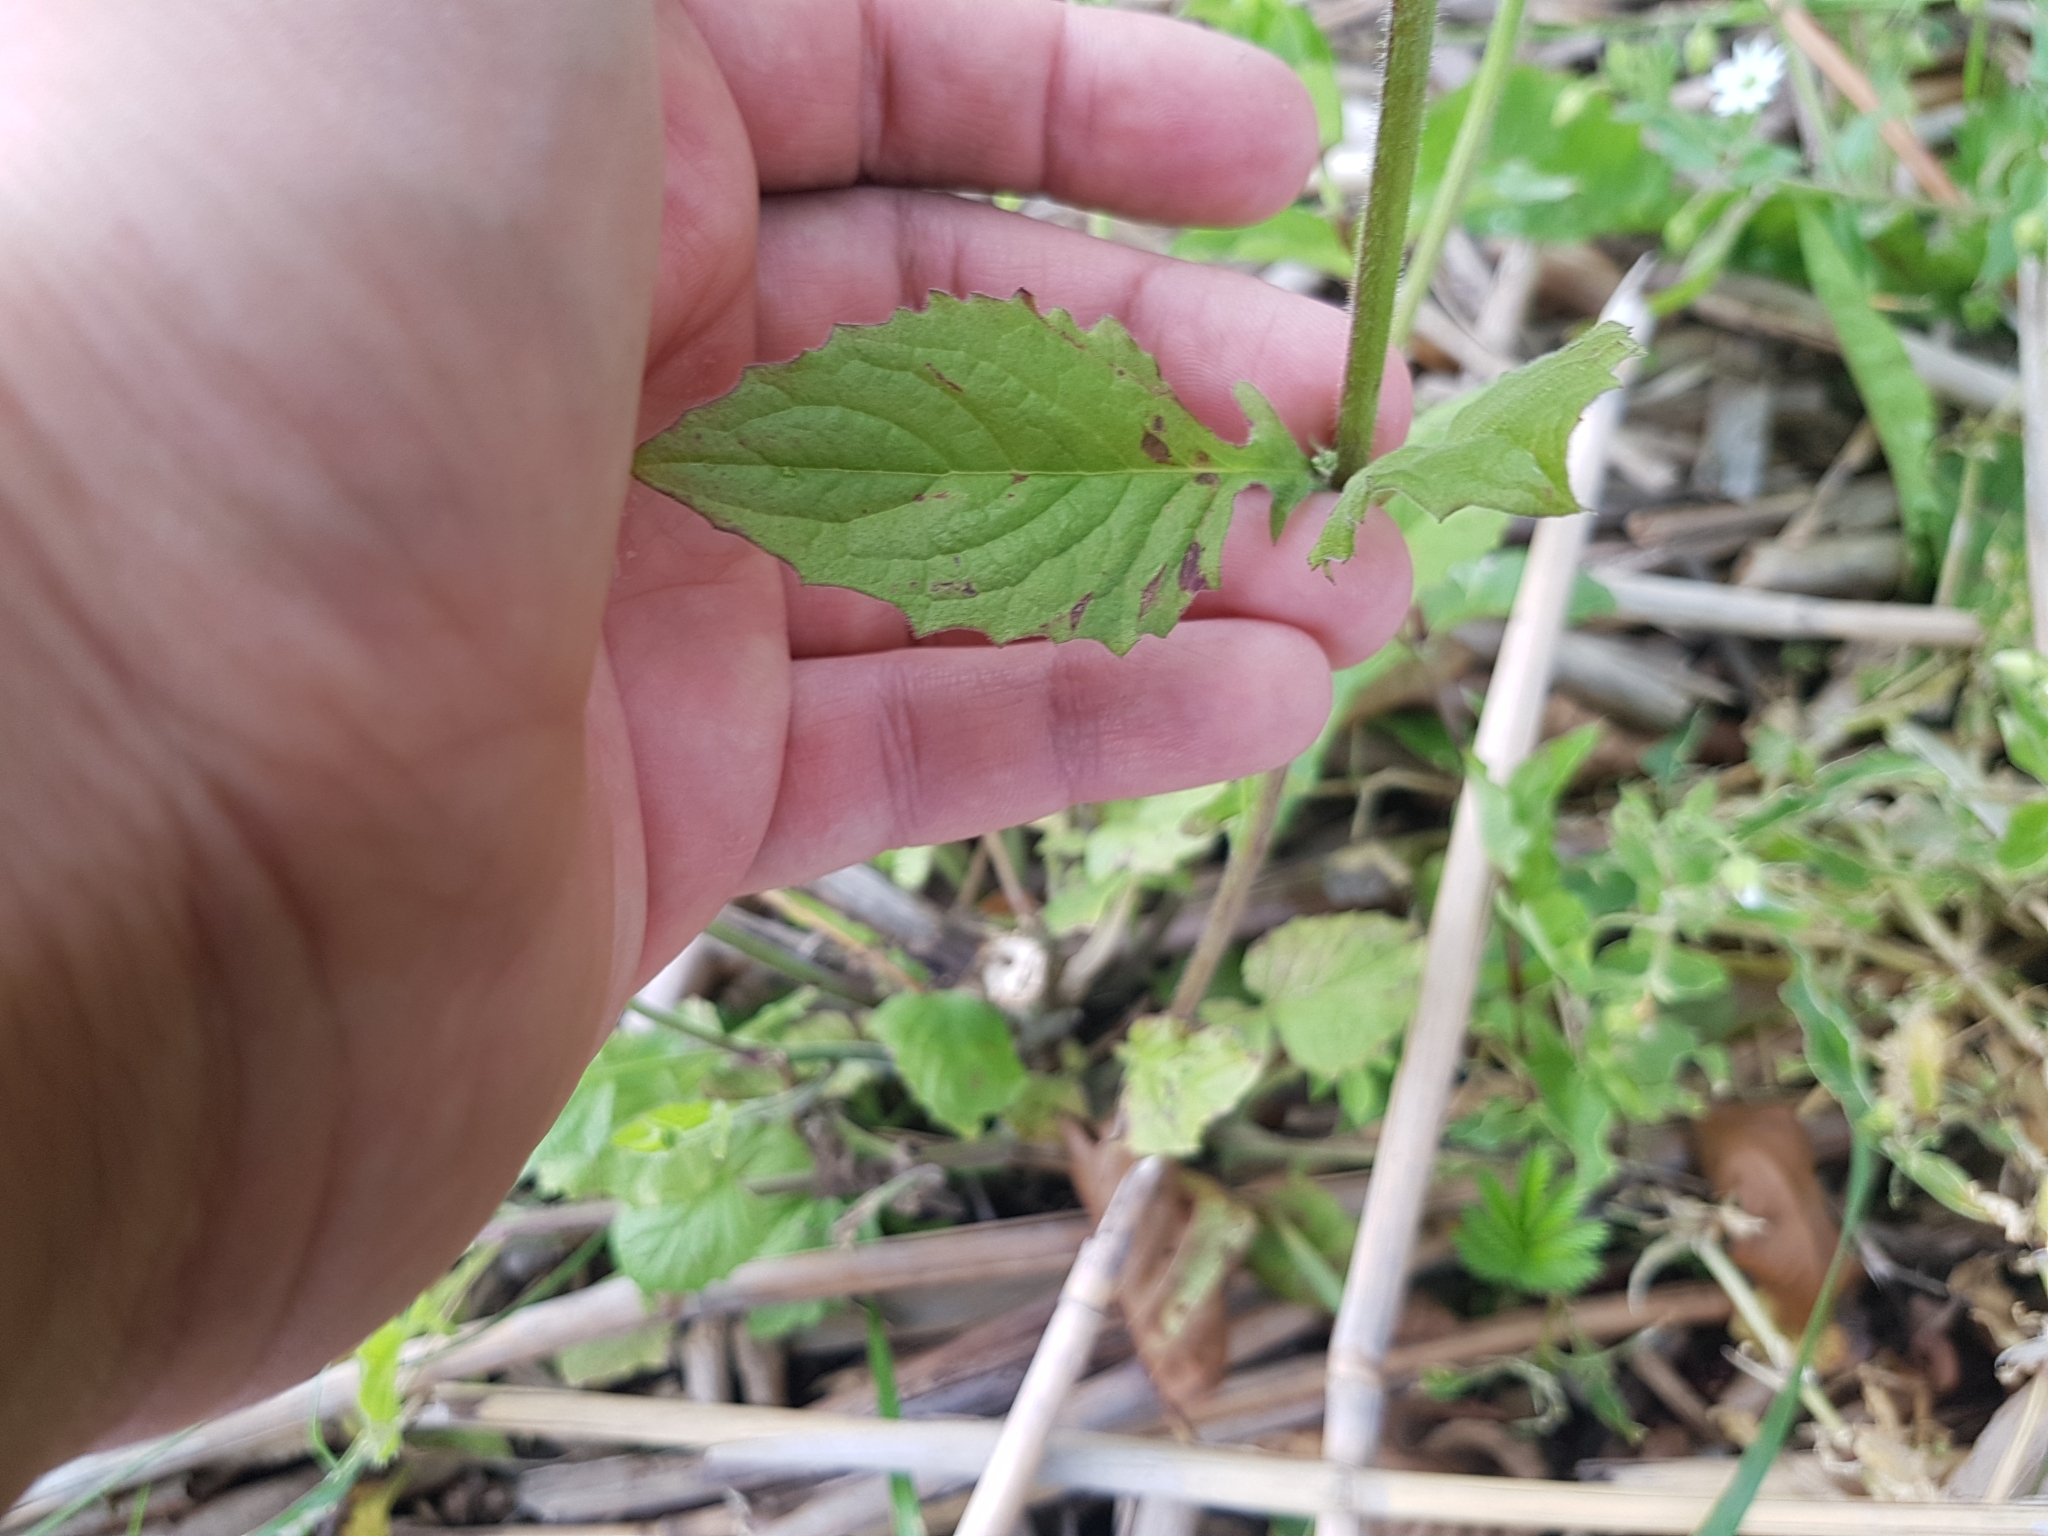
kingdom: Plantae
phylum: Tracheophyta
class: Magnoliopsida
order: Asterales
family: Asteraceae
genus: Lapsana
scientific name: Lapsana communis
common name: Nipplewort
